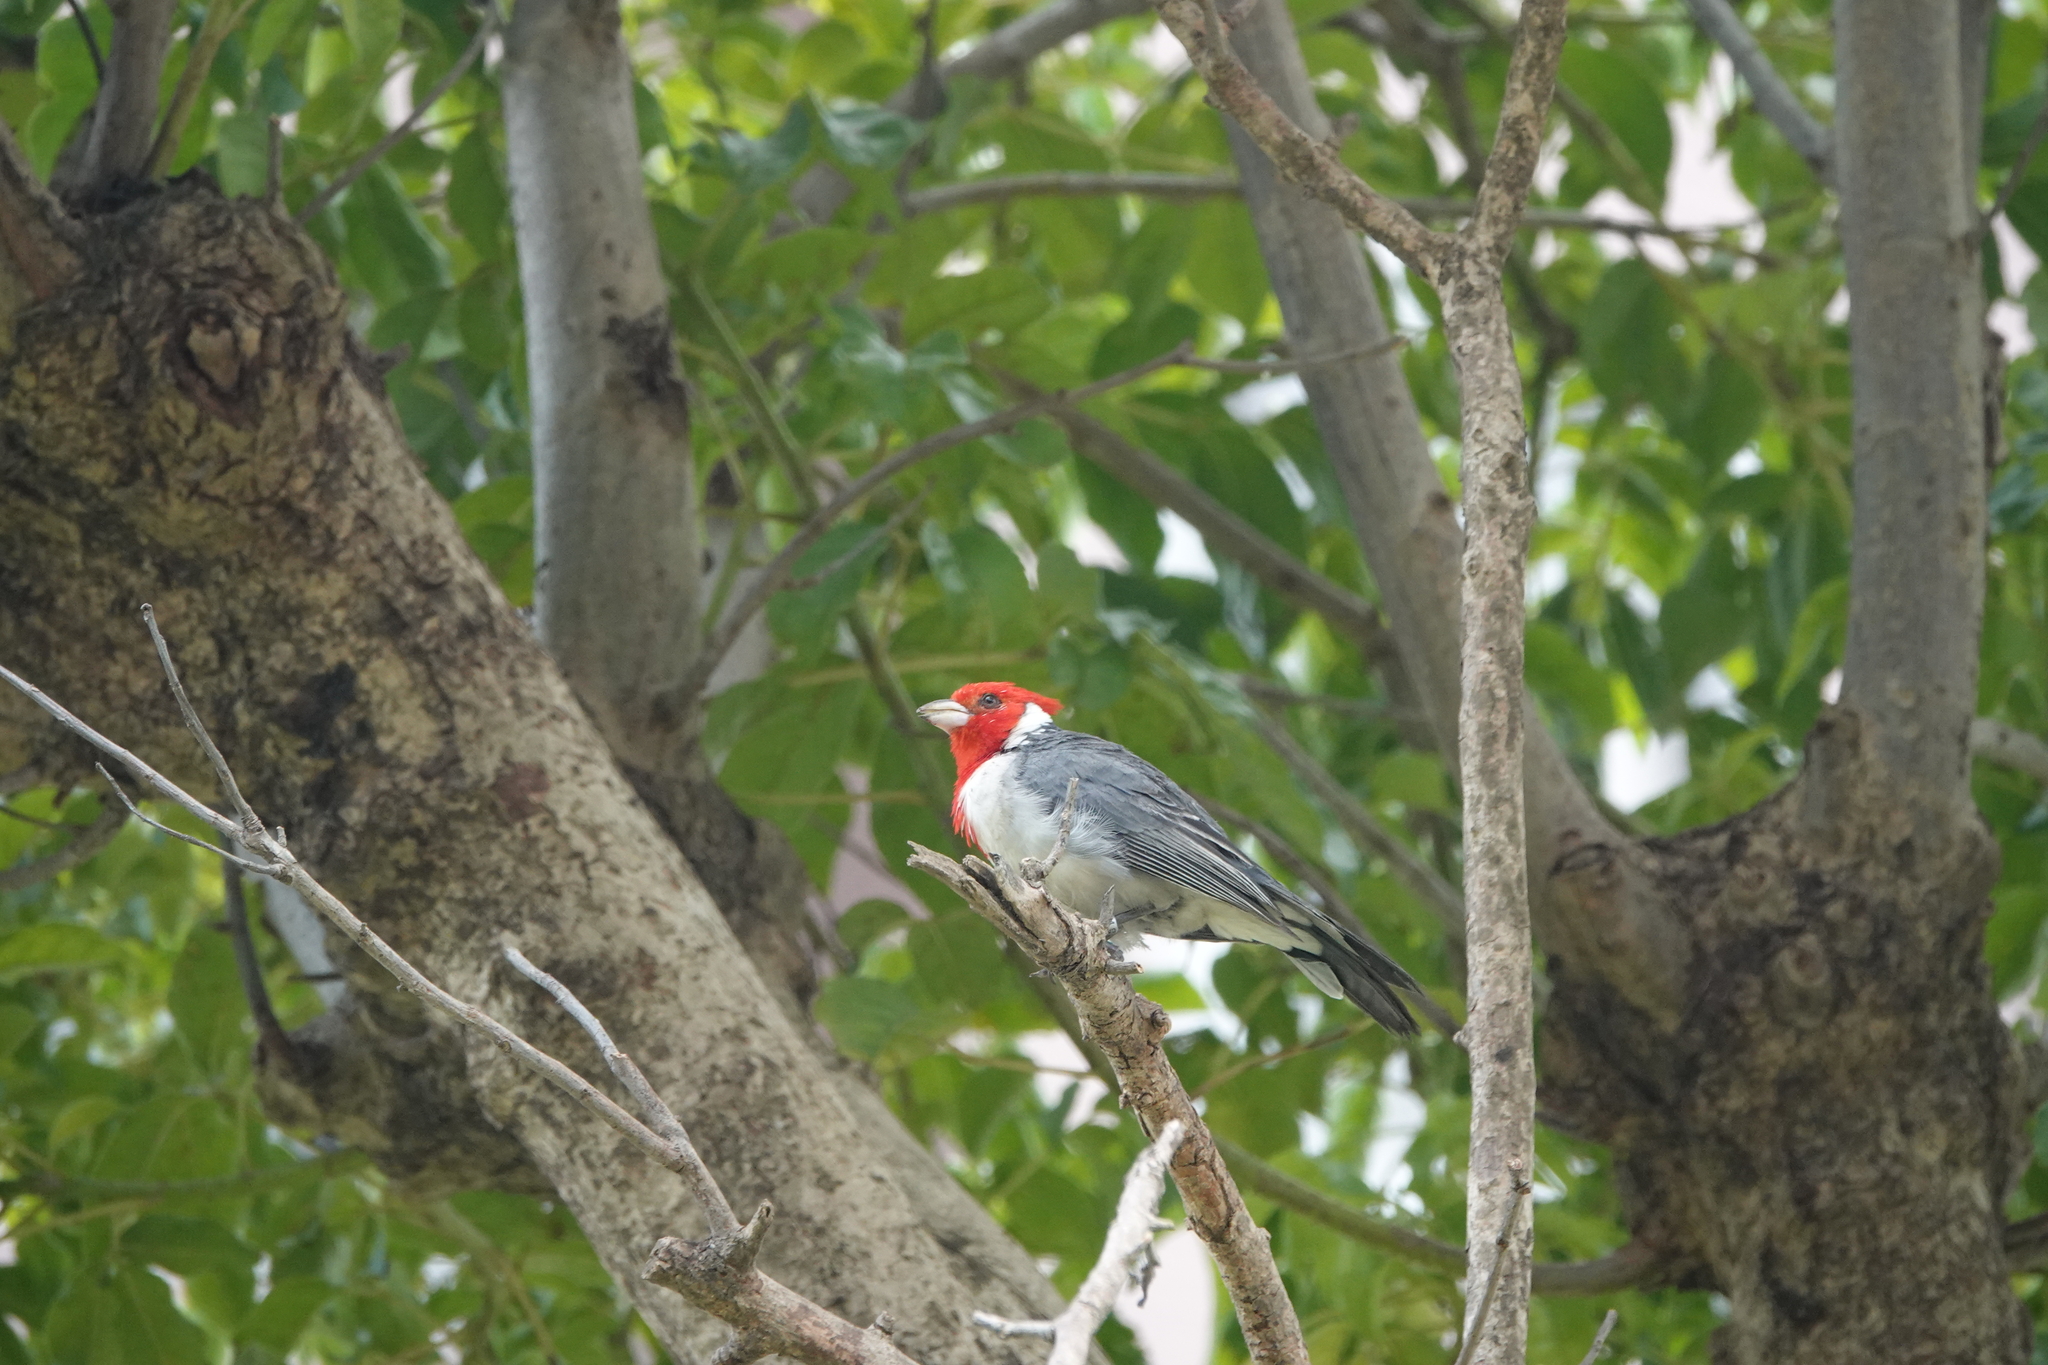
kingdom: Animalia
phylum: Chordata
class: Aves
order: Passeriformes
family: Thraupidae
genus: Paroaria
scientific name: Paroaria coronata
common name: Red-crested cardinal
